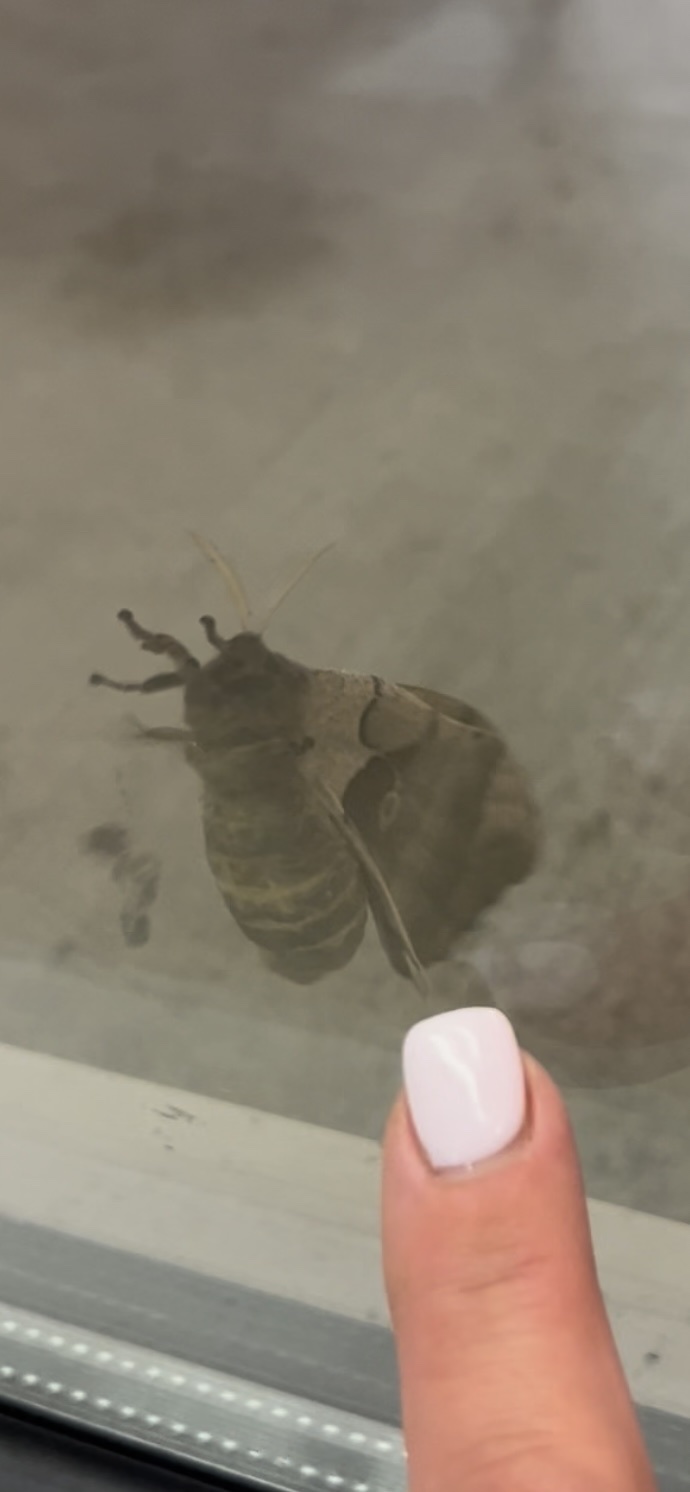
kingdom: Animalia
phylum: Arthropoda
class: Insecta
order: Lepidoptera
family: Saturniidae
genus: Antheraea
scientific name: Antheraea polyphemus
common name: Polyphemus moth
